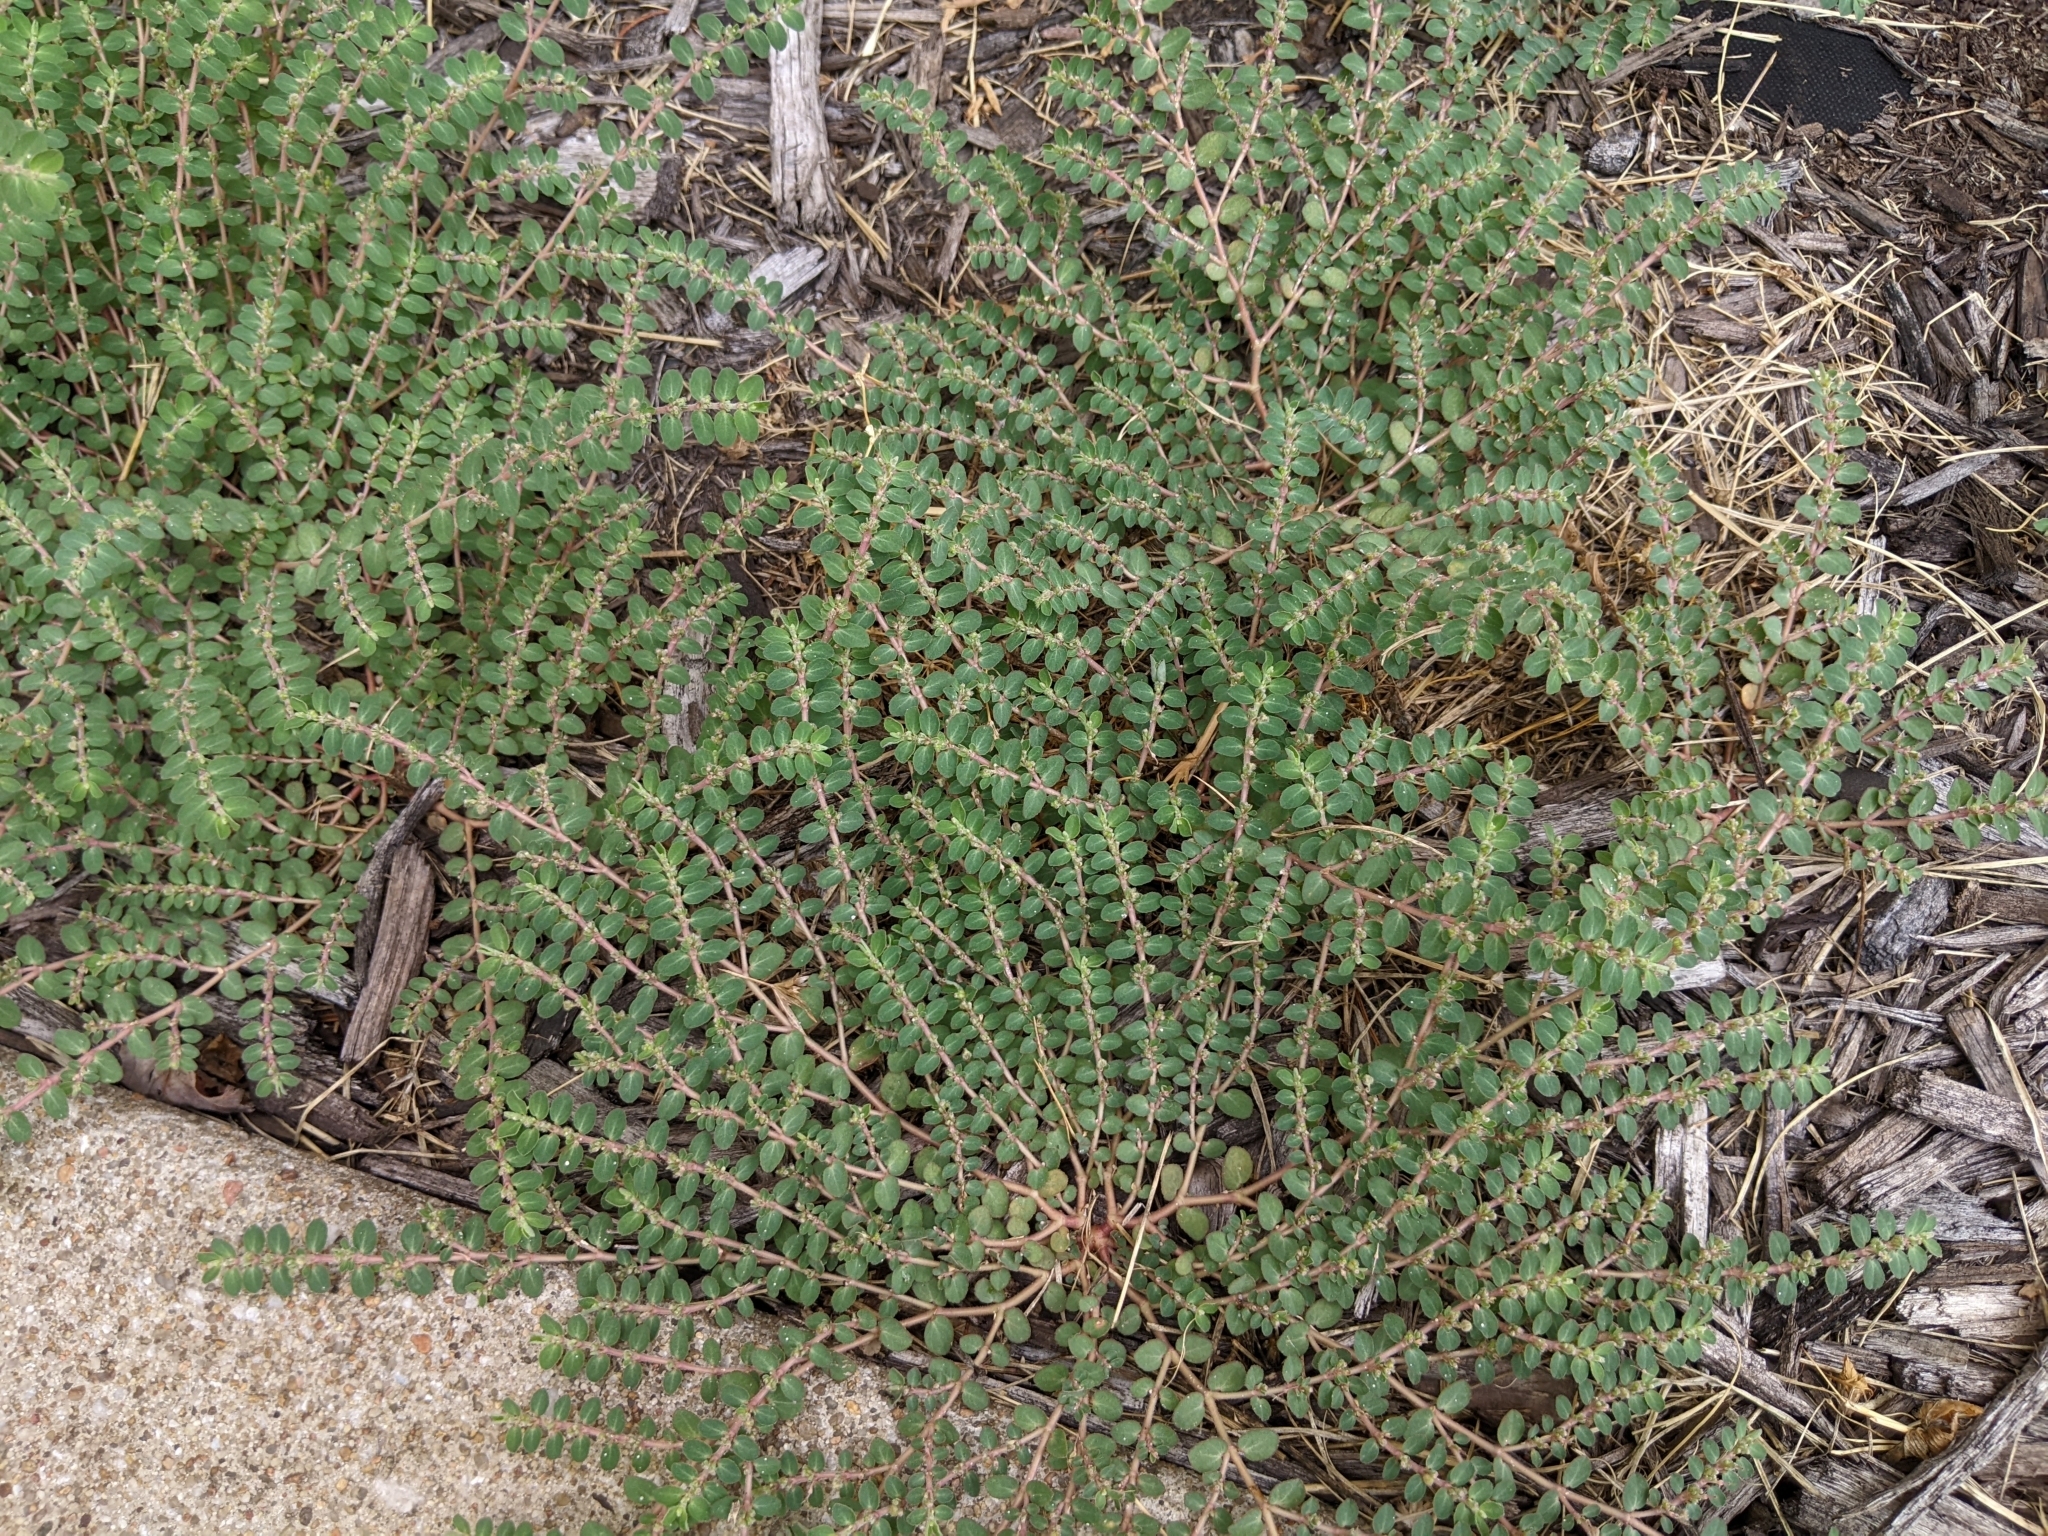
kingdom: Plantae
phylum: Tracheophyta
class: Magnoliopsida
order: Malpighiales
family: Euphorbiaceae
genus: Euphorbia
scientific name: Euphorbia prostrata
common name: Prostrate sandmat
